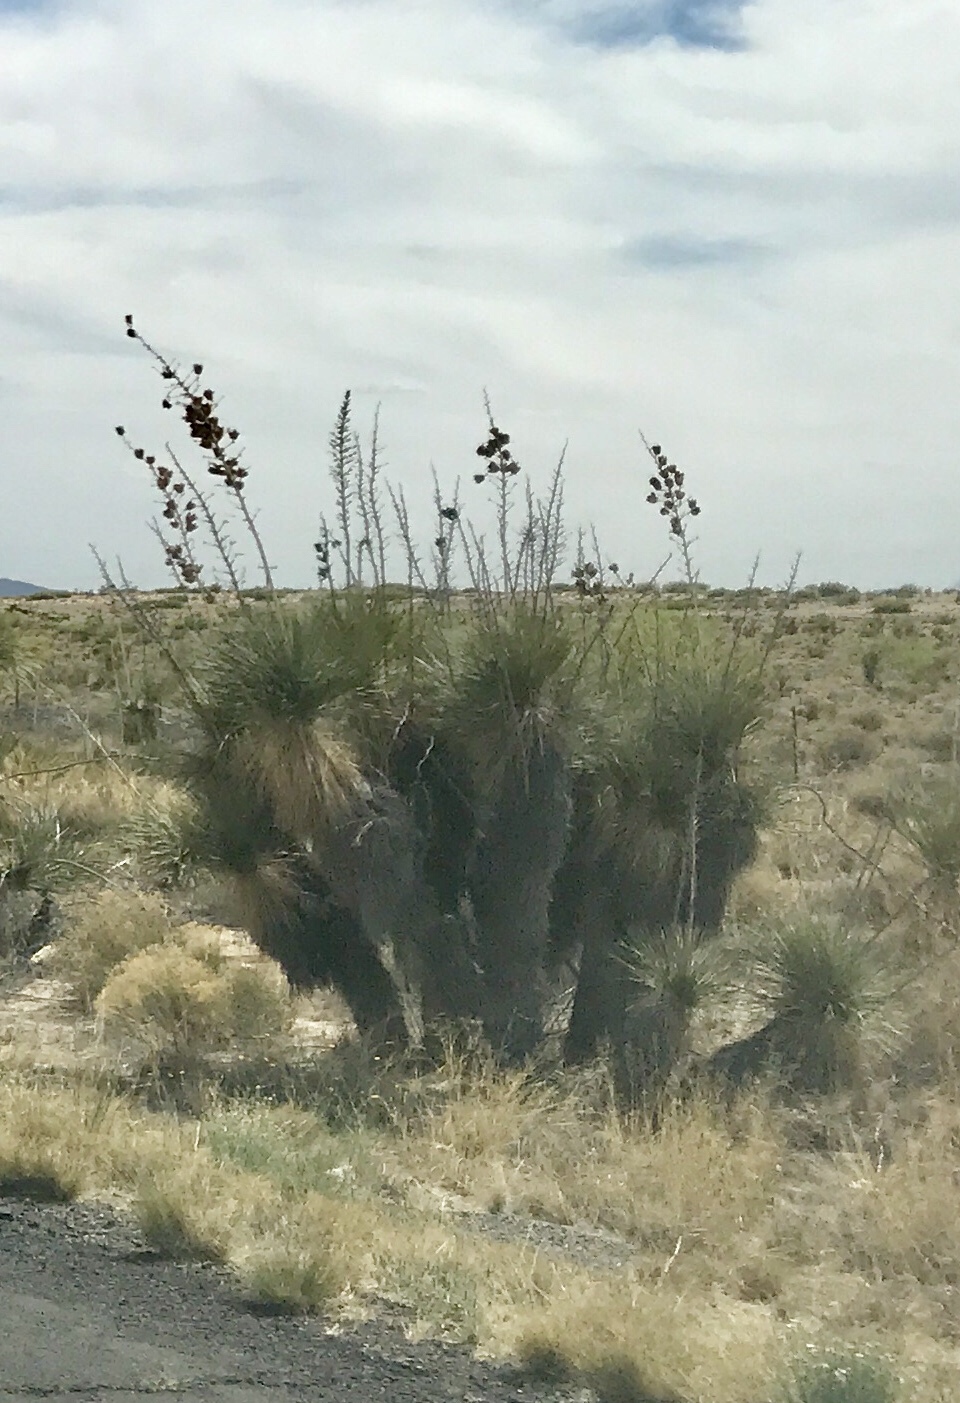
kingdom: Plantae
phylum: Tracheophyta
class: Liliopsida
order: Asparagales
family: Asparagaceae
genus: Yucca
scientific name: Yucca elata
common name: Palmella
